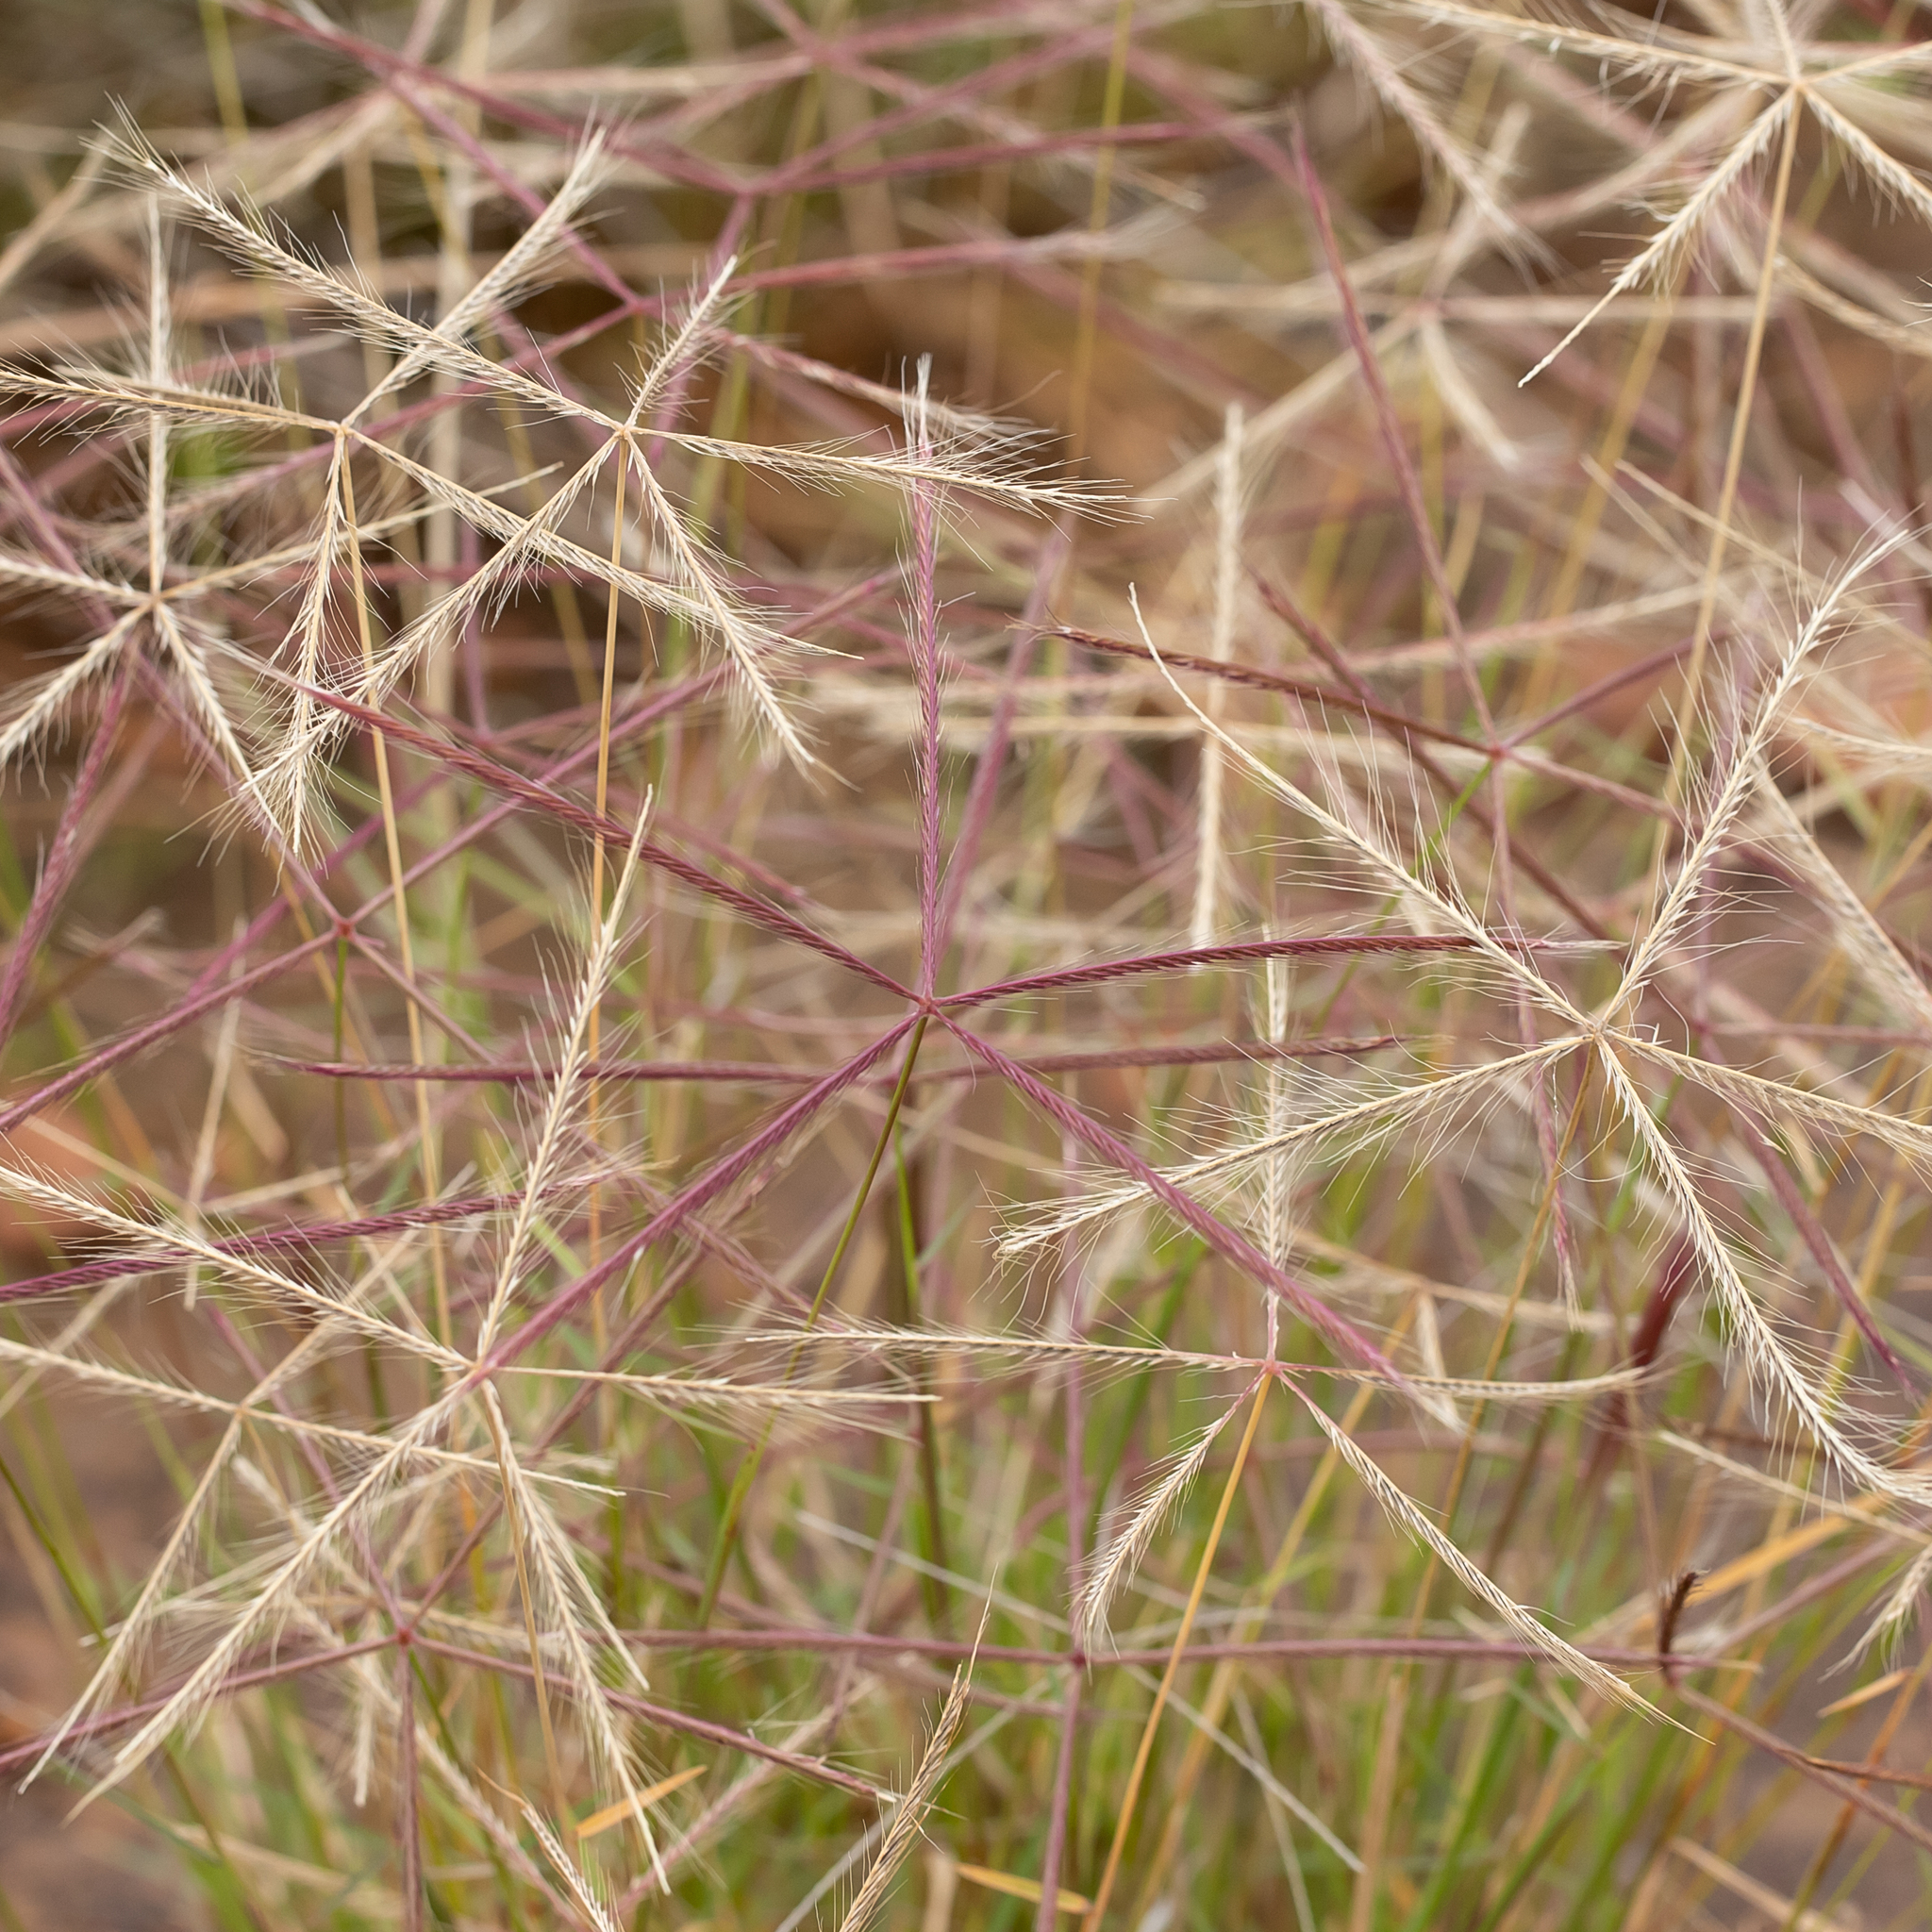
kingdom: Plantae
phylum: Tracheophyta
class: Liliopsida
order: Poales
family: Poaceae
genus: Chloris
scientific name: Chloris pectinata
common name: Comb windmill grass
